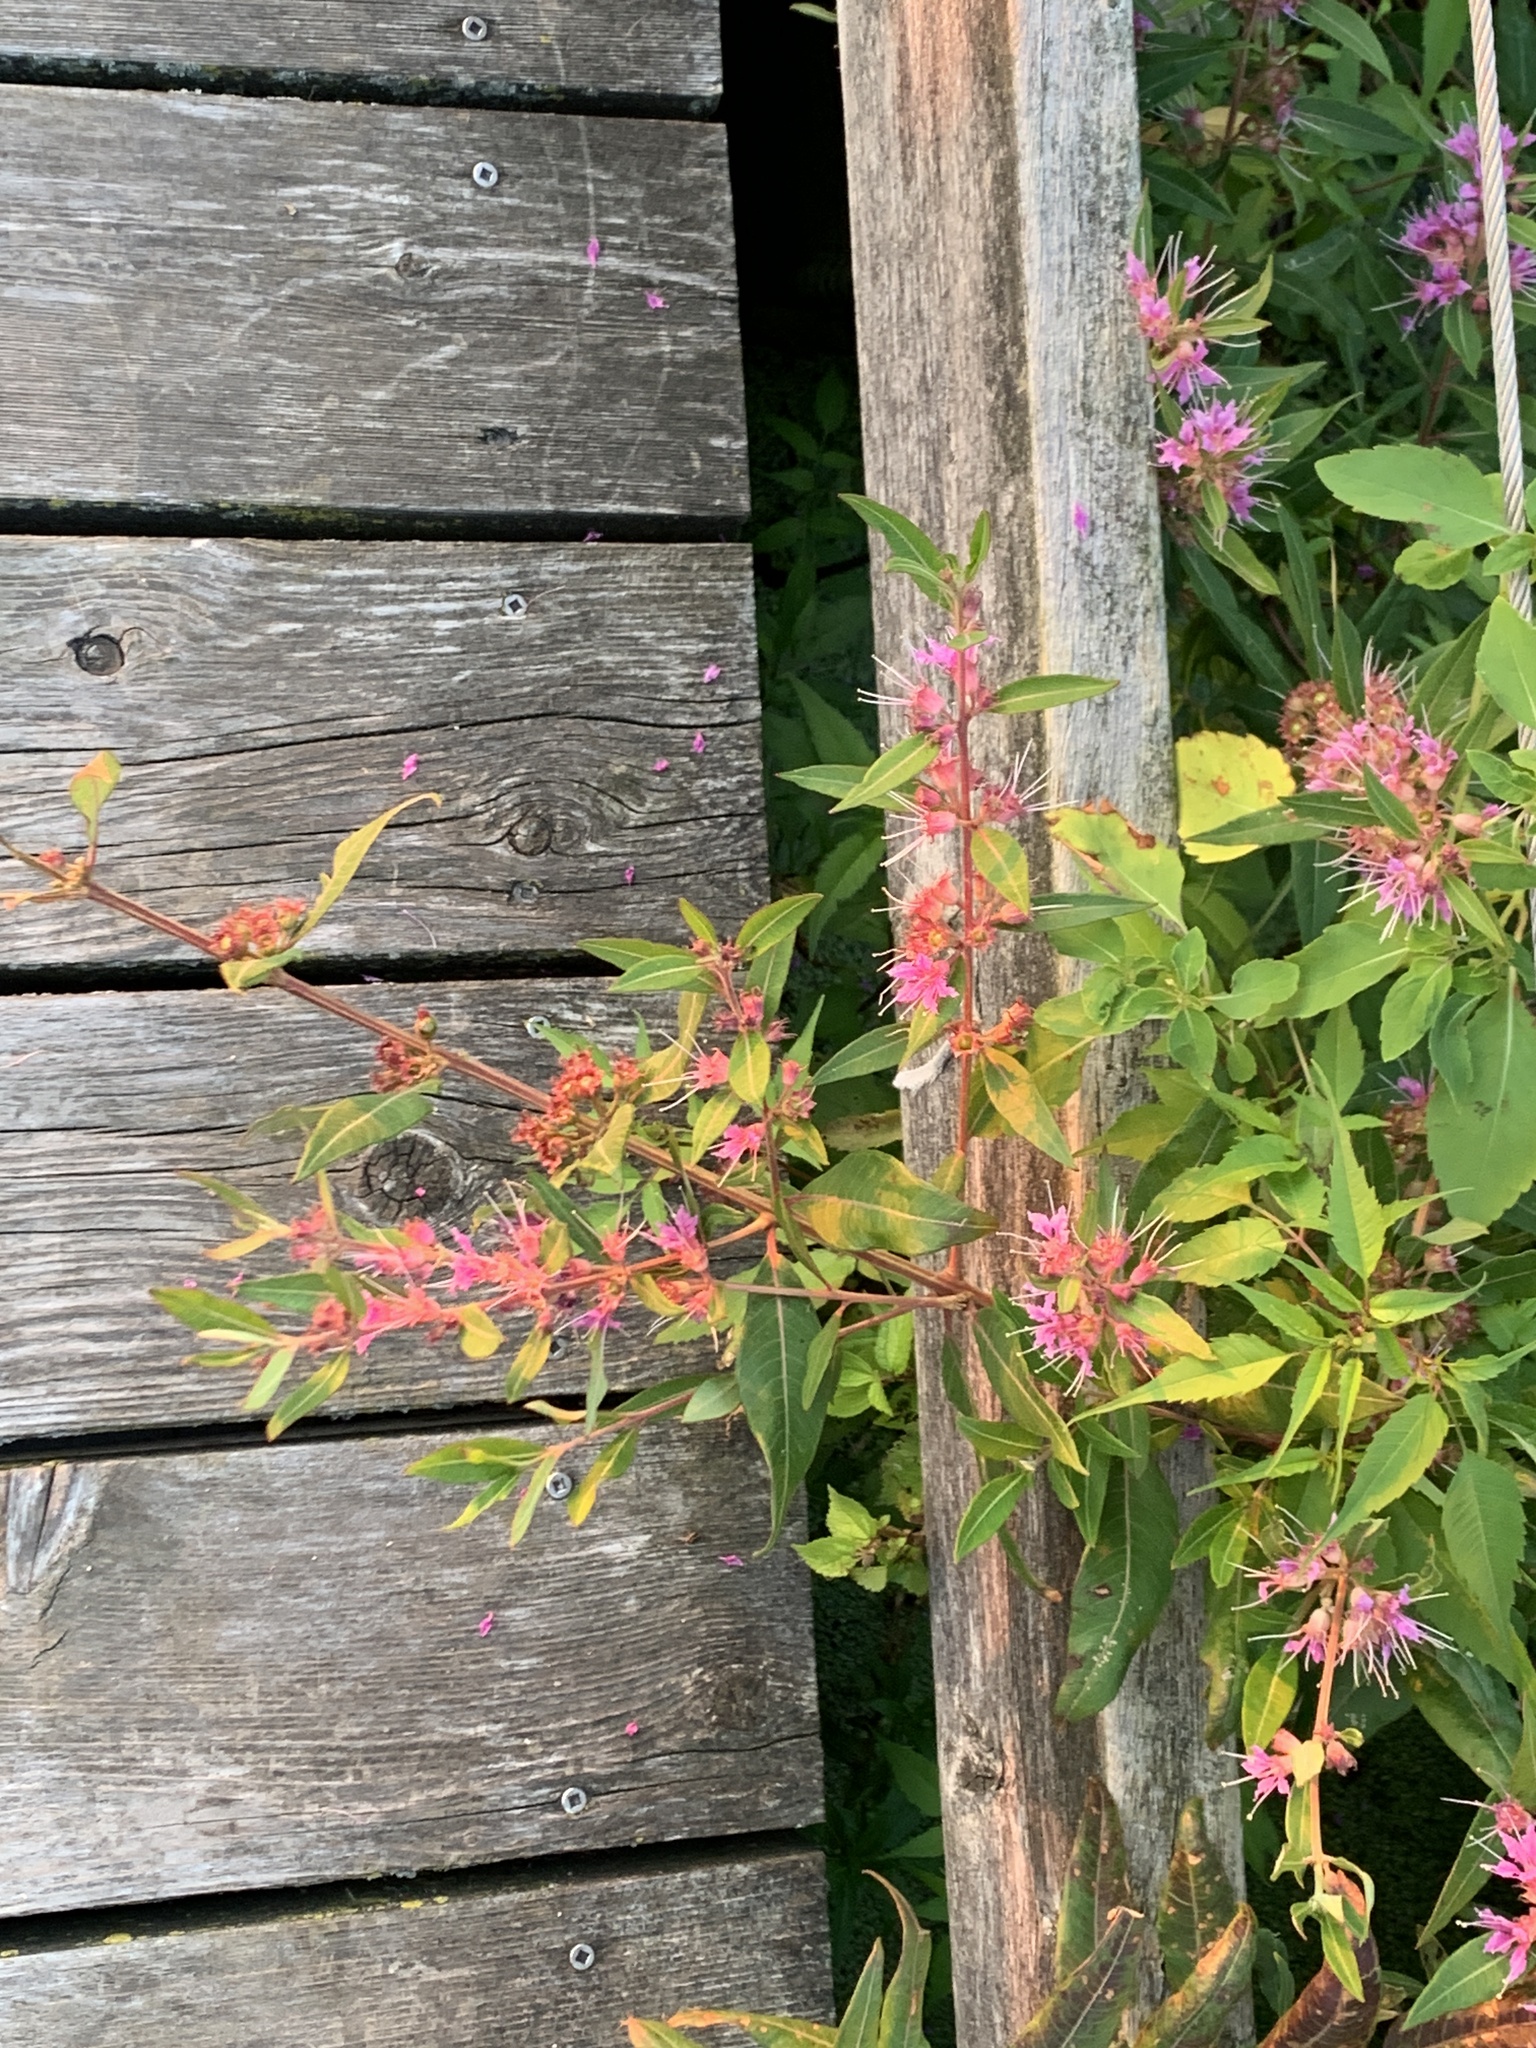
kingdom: Plantae
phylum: Tracheophyta
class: Magnoliopsida
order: Myrtales
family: Lythraceae
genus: Decodon
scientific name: Decodon verticillatus
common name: Hairy swamp loosestrife
